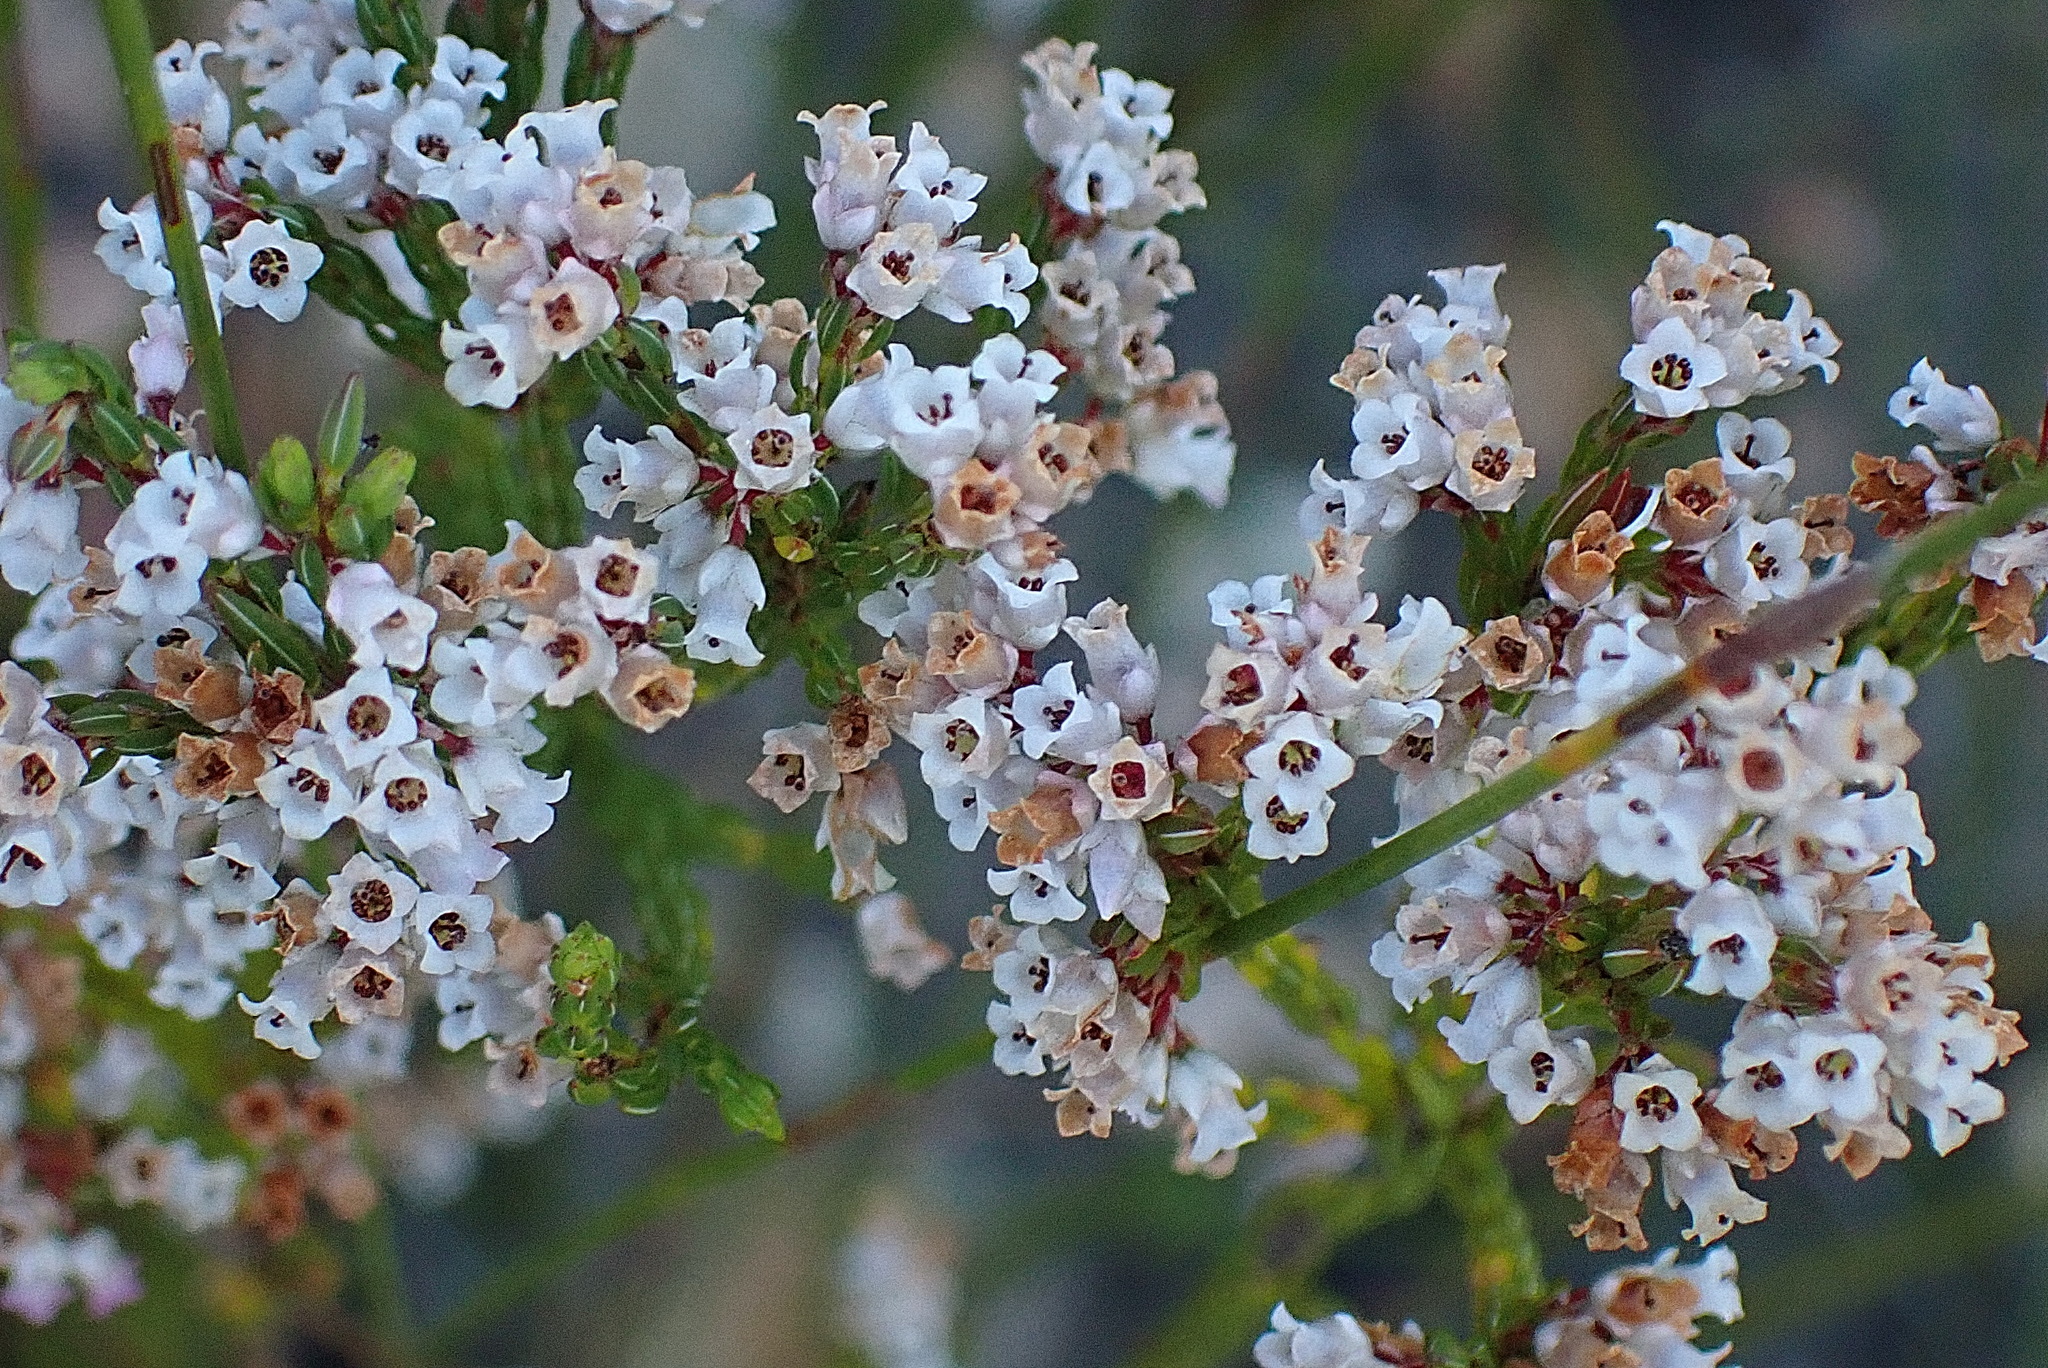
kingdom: Plantae
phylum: Tracheophyta
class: Magnoliopsida
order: Ericales
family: Ericaceae
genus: Erica
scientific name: Erica articularis
